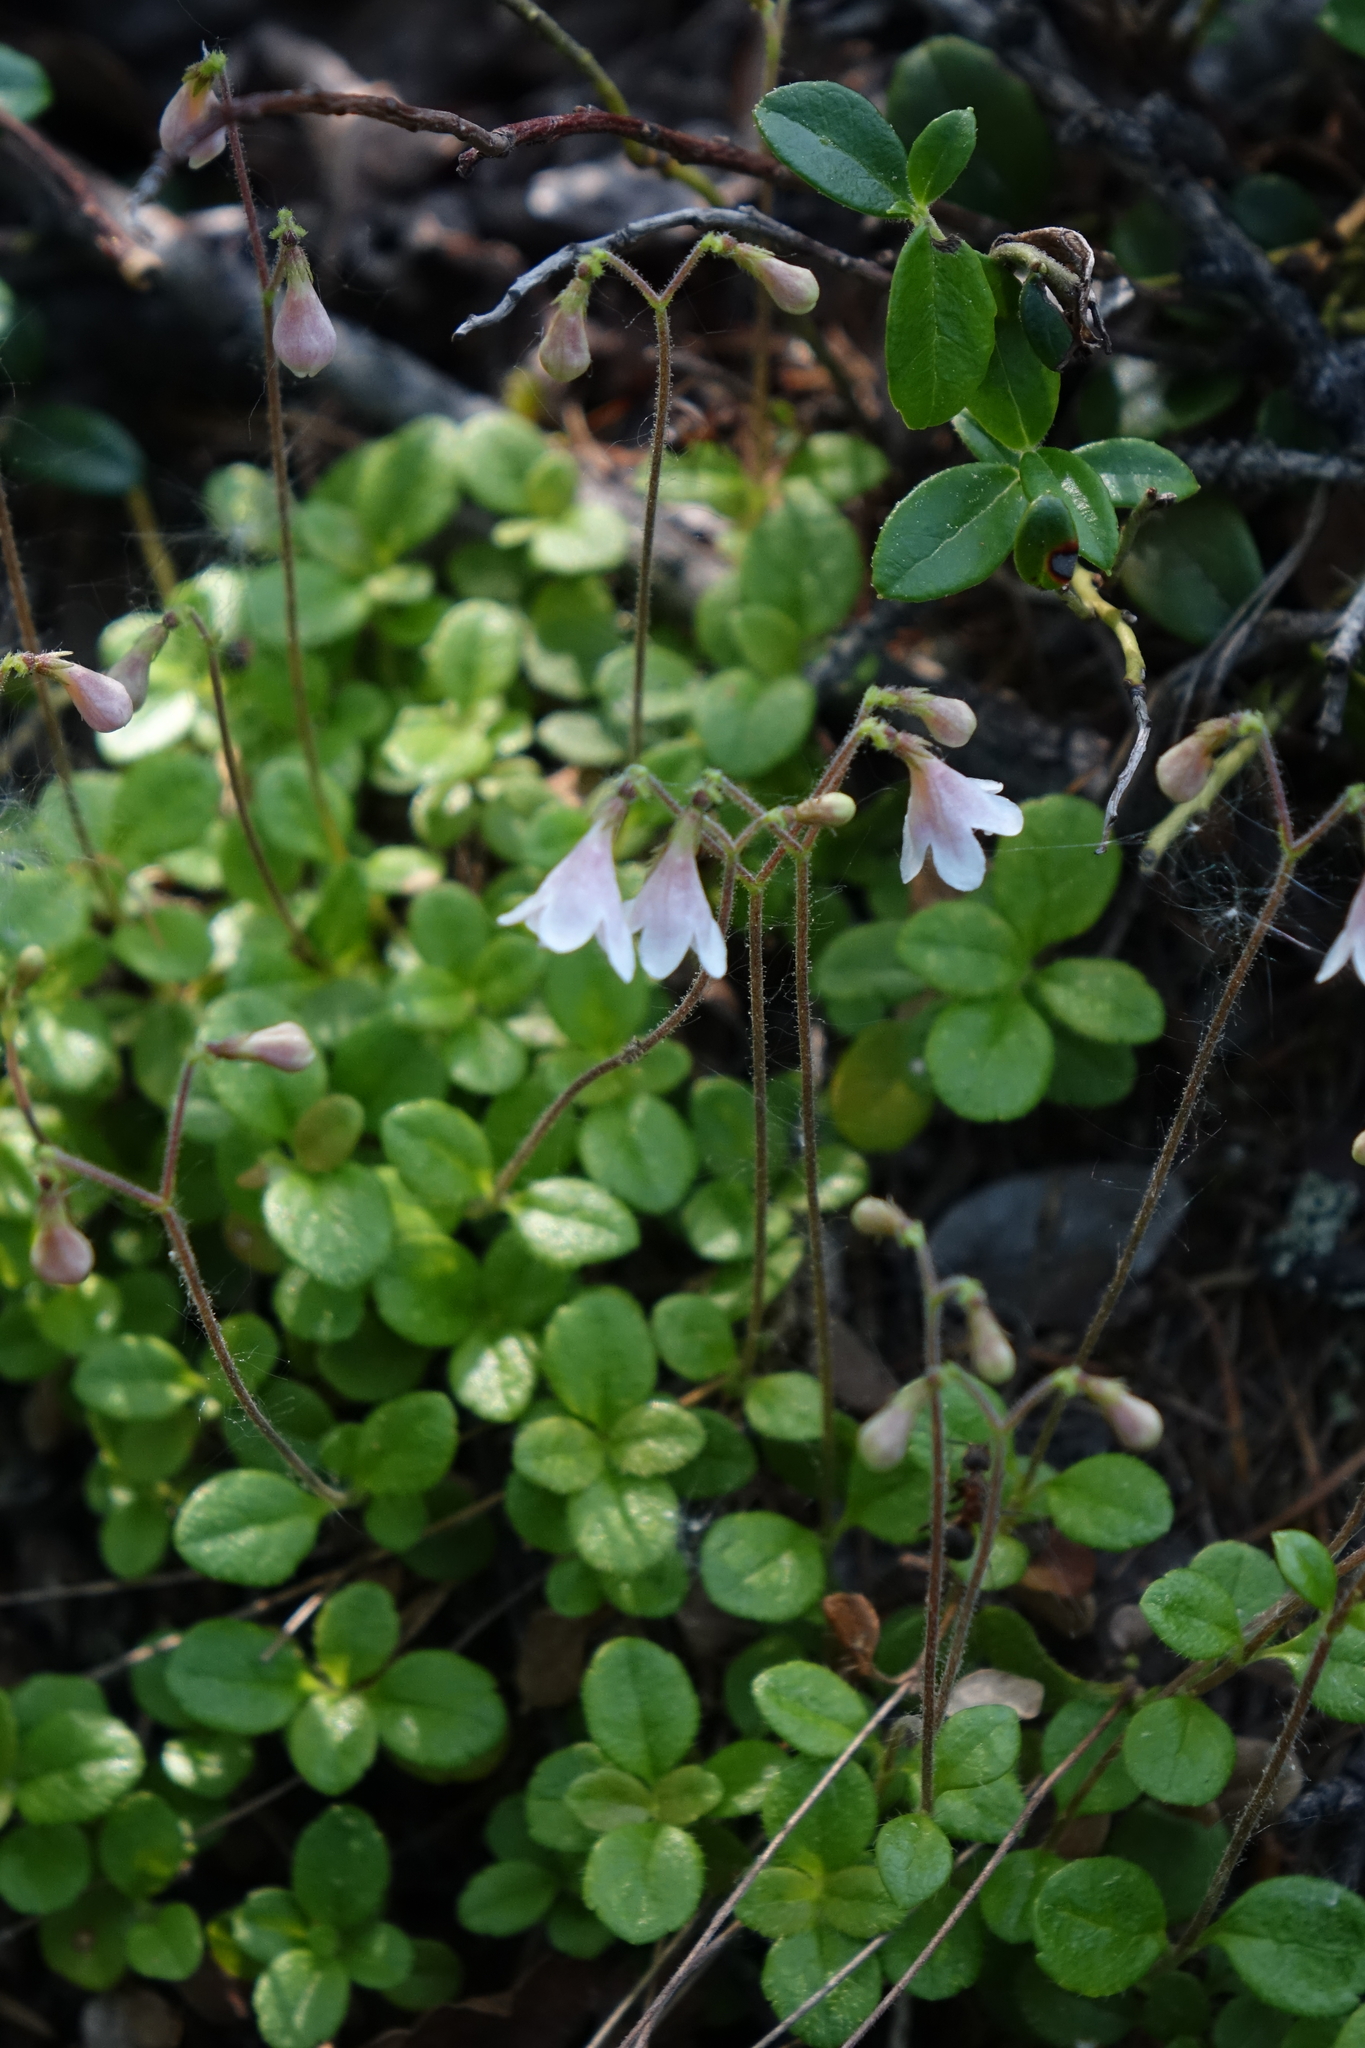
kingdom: Plantae
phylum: Tracheophyta
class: Magnoliopsida
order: Dipsacales
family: Caprifoliaceae
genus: Linnaea
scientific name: Linnaea borealis
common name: Twinflower
